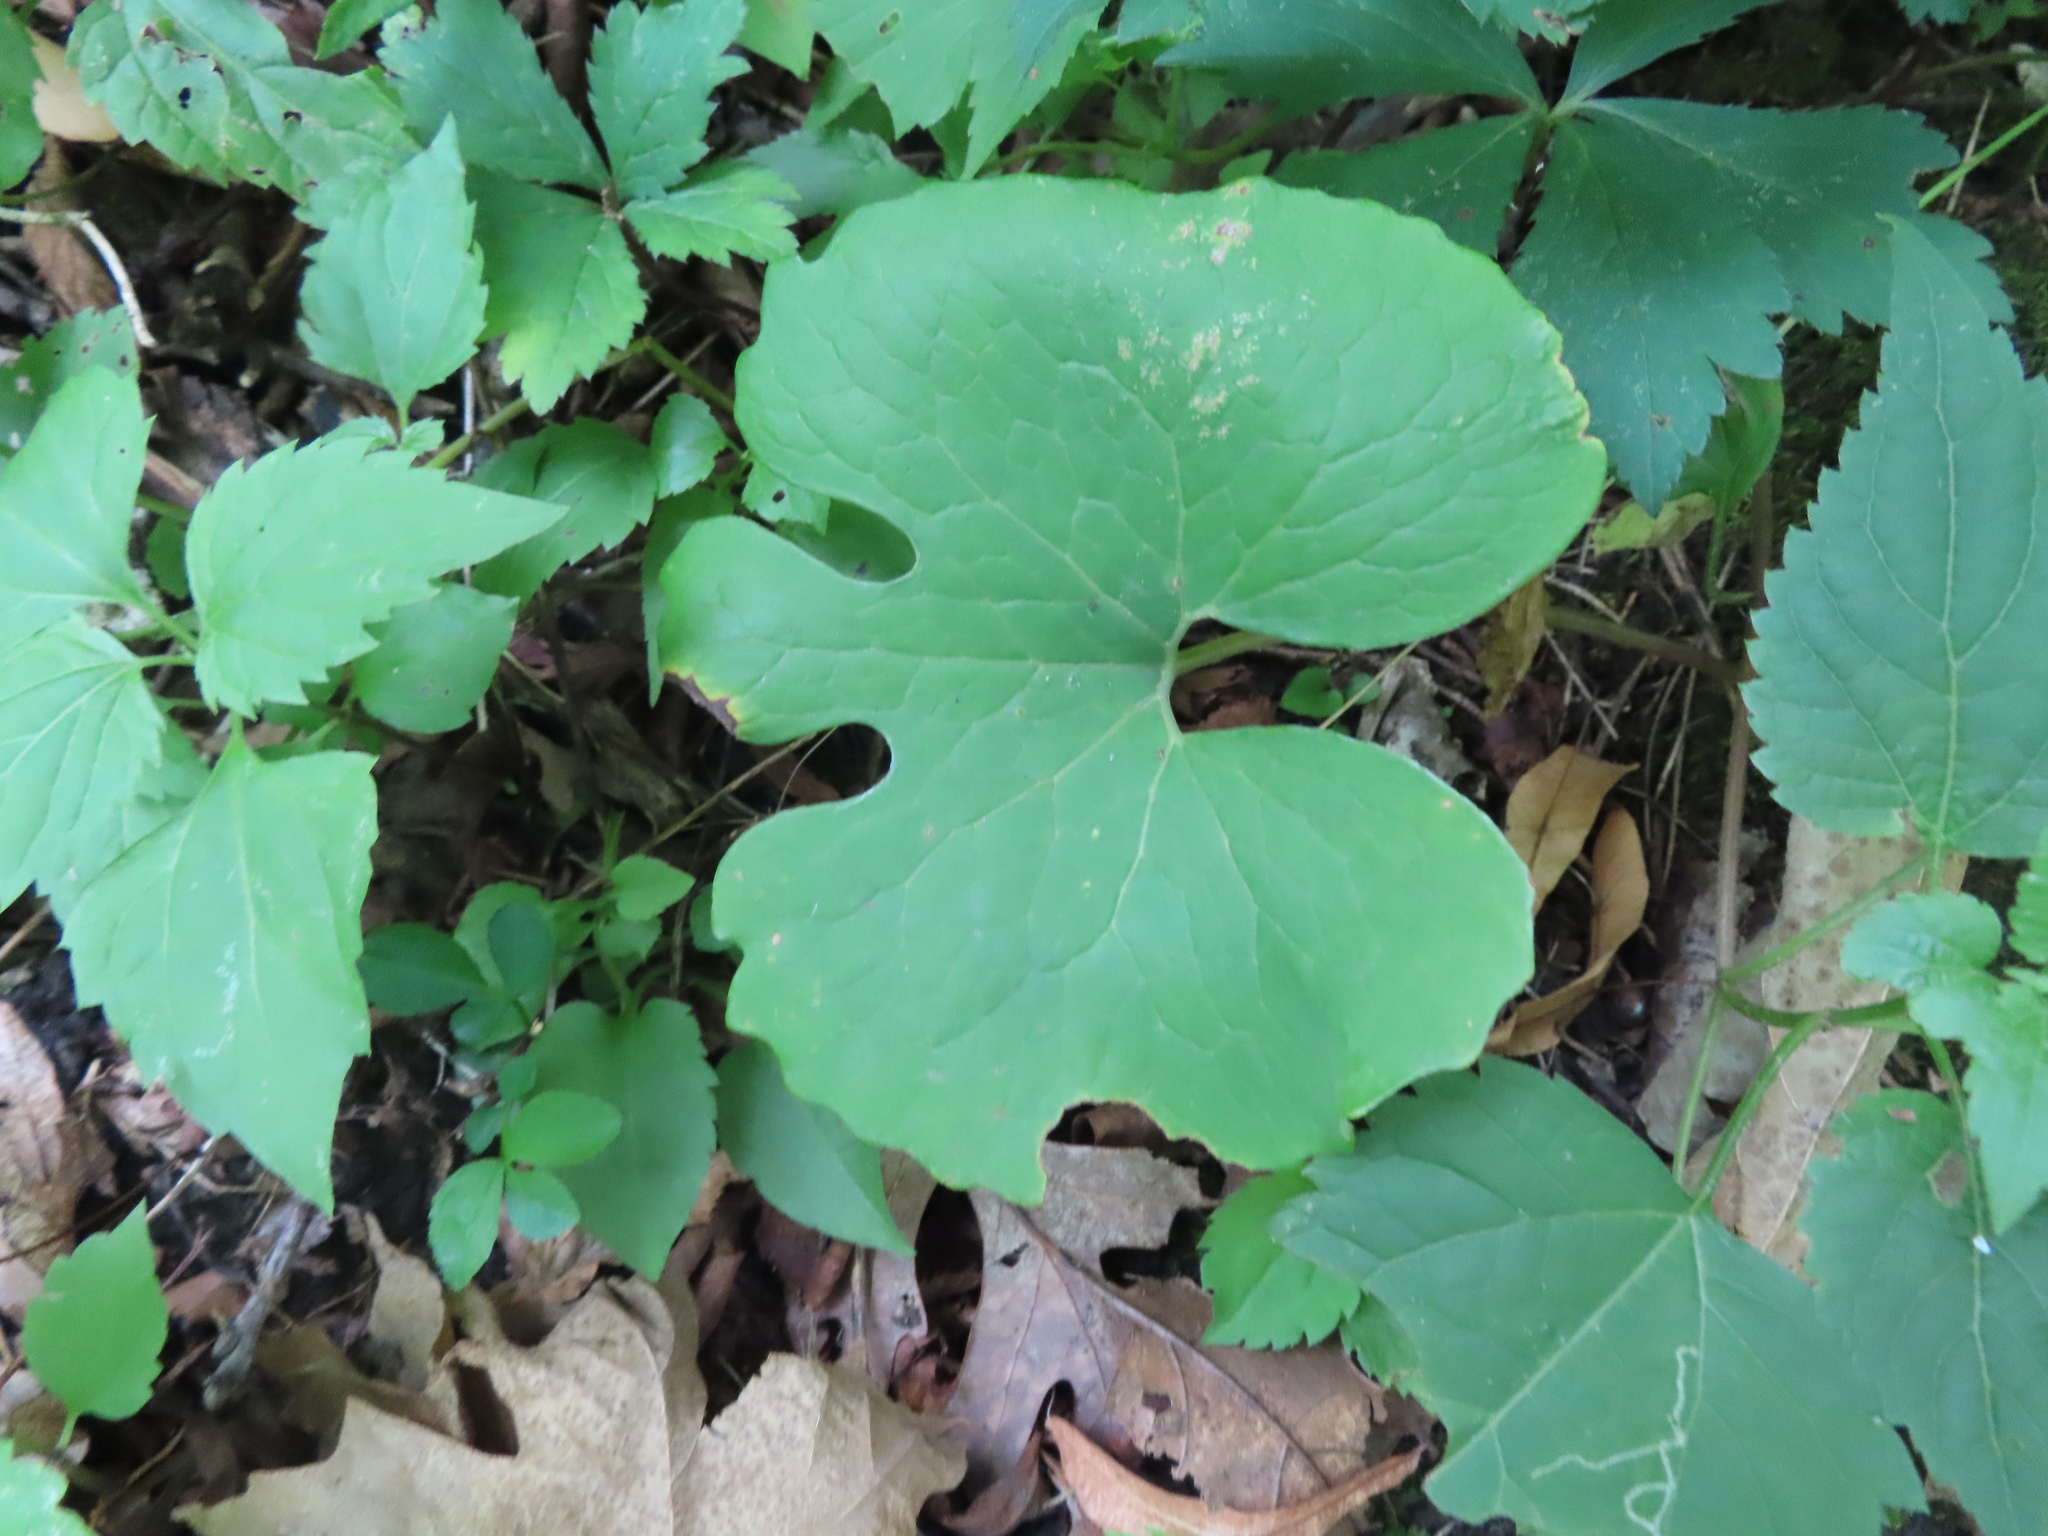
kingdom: Plantae
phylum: Tracheophyta
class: Magnoliopsida
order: Ranunculales
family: Papaveraceae
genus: Sanguinaria
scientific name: Sanguinaria canadensis
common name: Bloodroot
